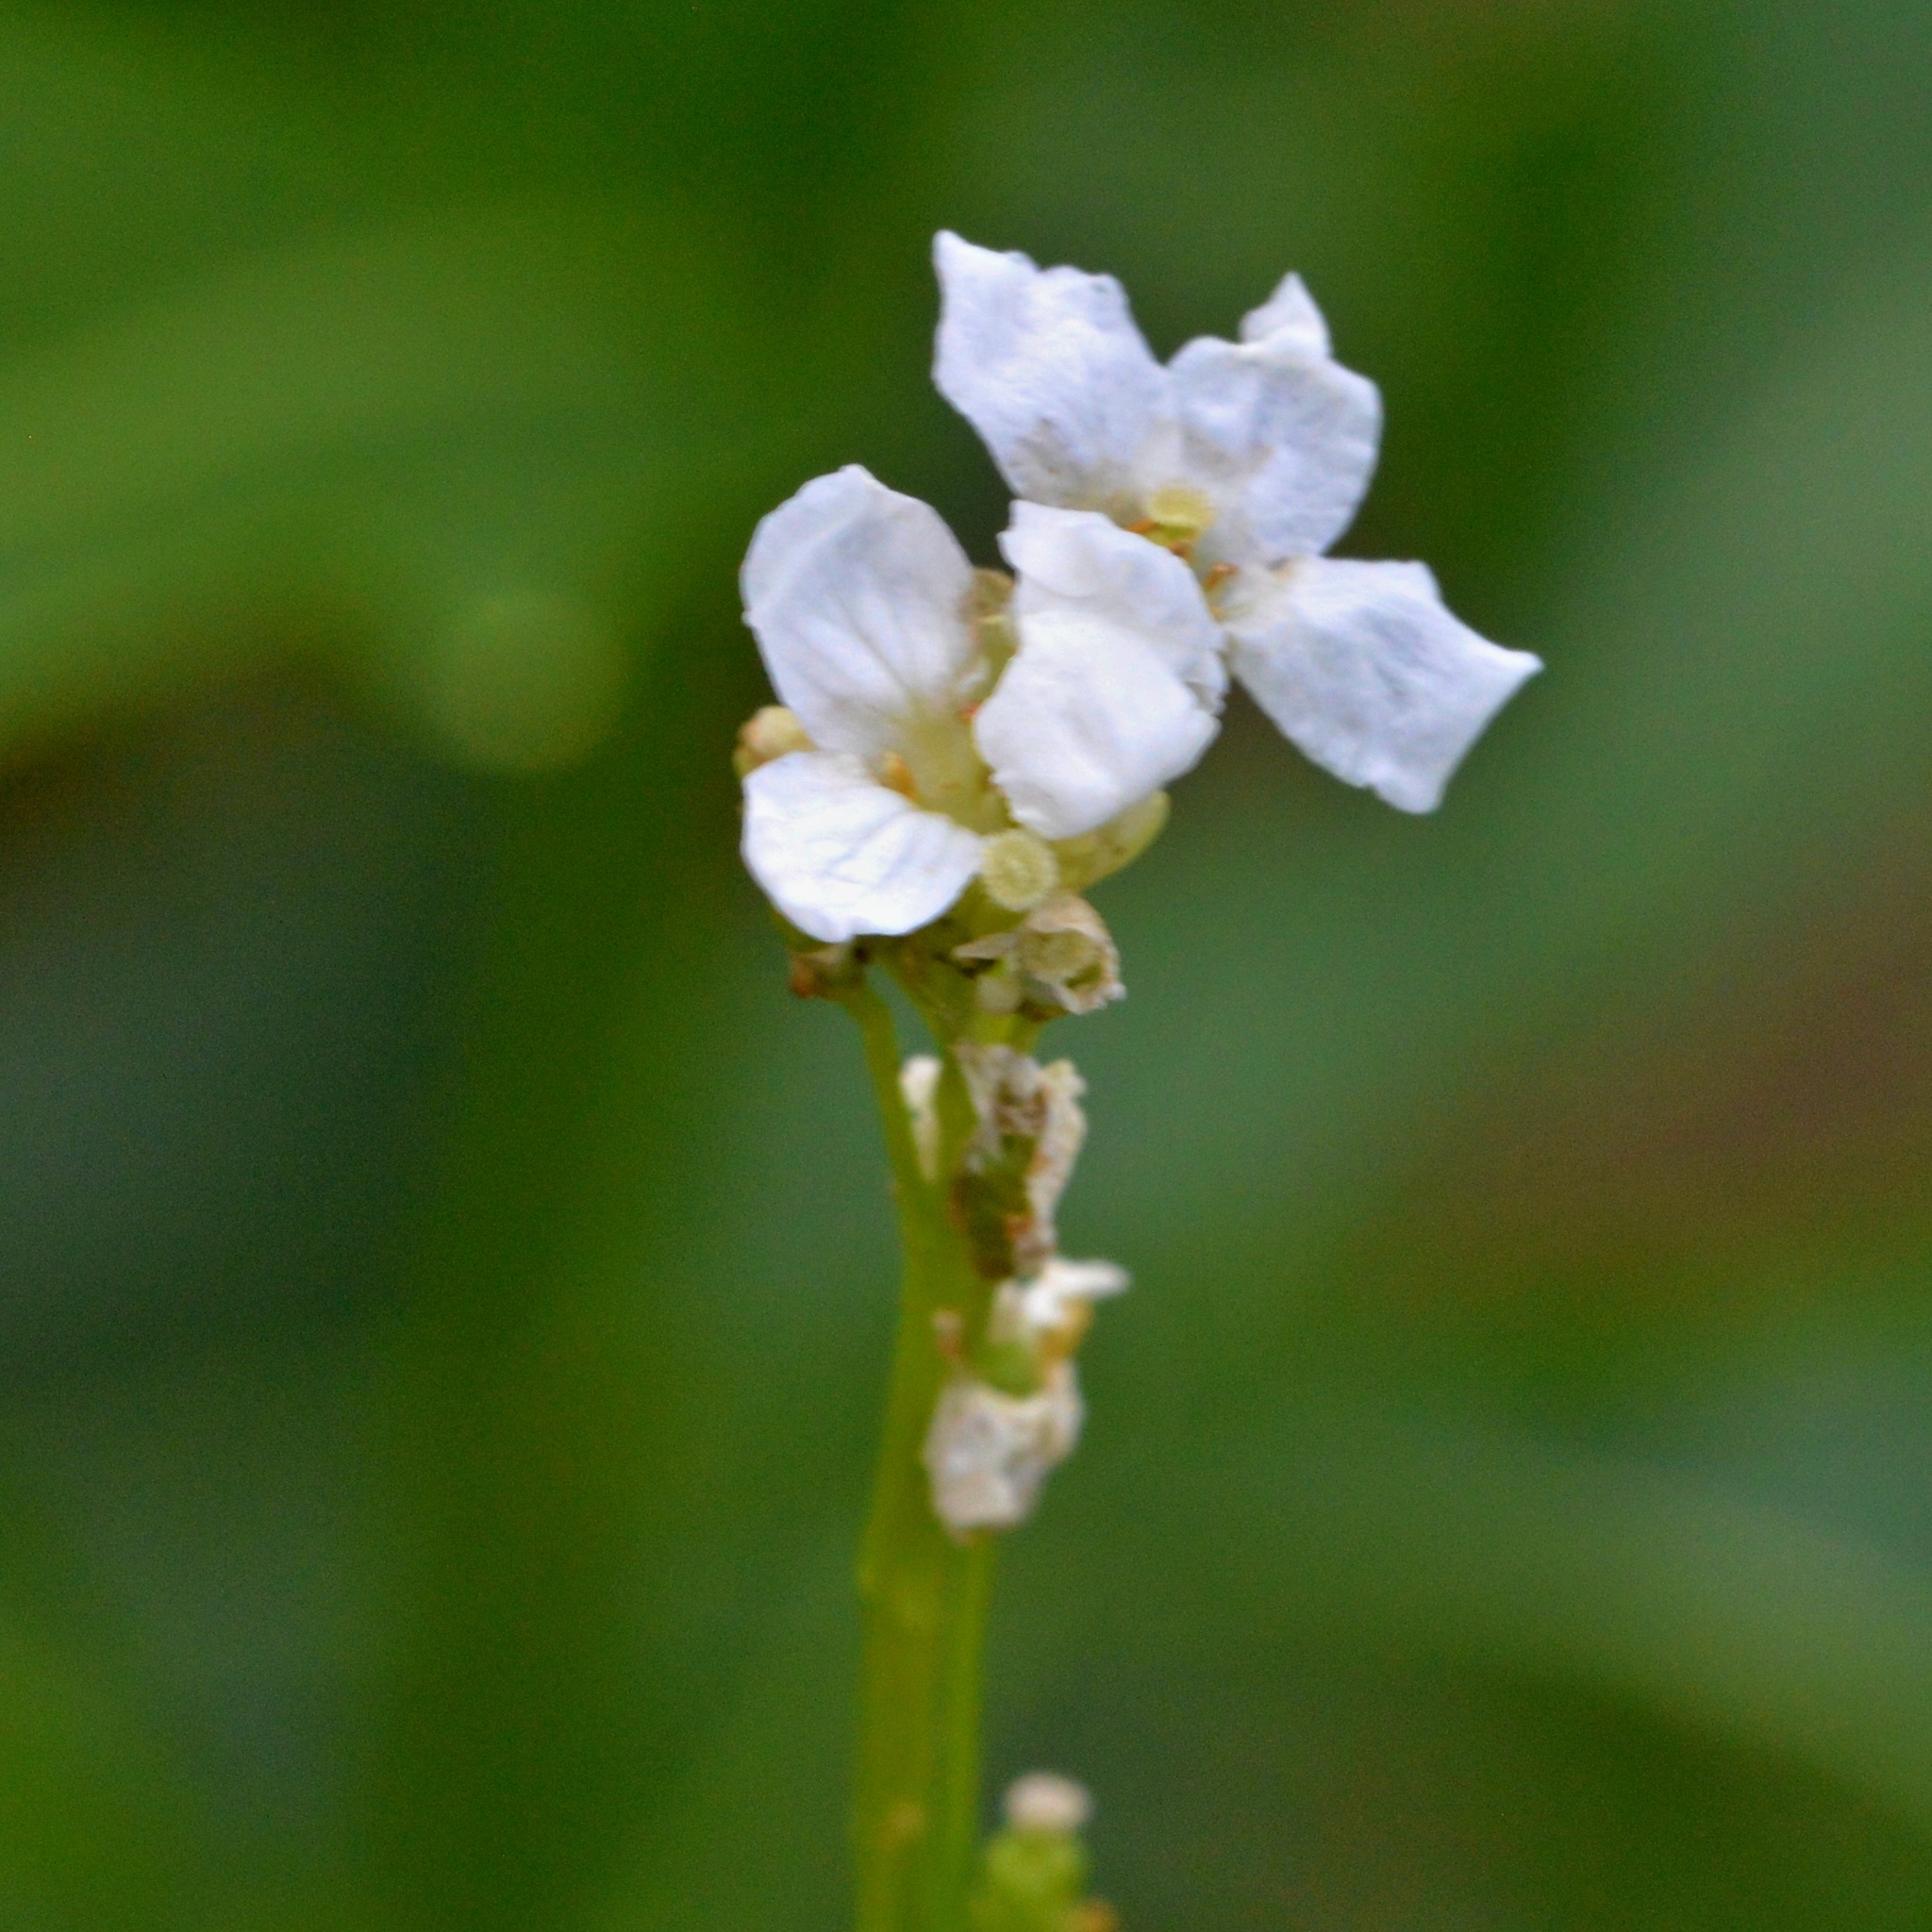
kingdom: Plantae
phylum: Tracheophyta
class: Magnoliopsida
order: Brassicales
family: Brassicaceae
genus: Armoracia
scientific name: Armoracia rusticana
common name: Horseradish
